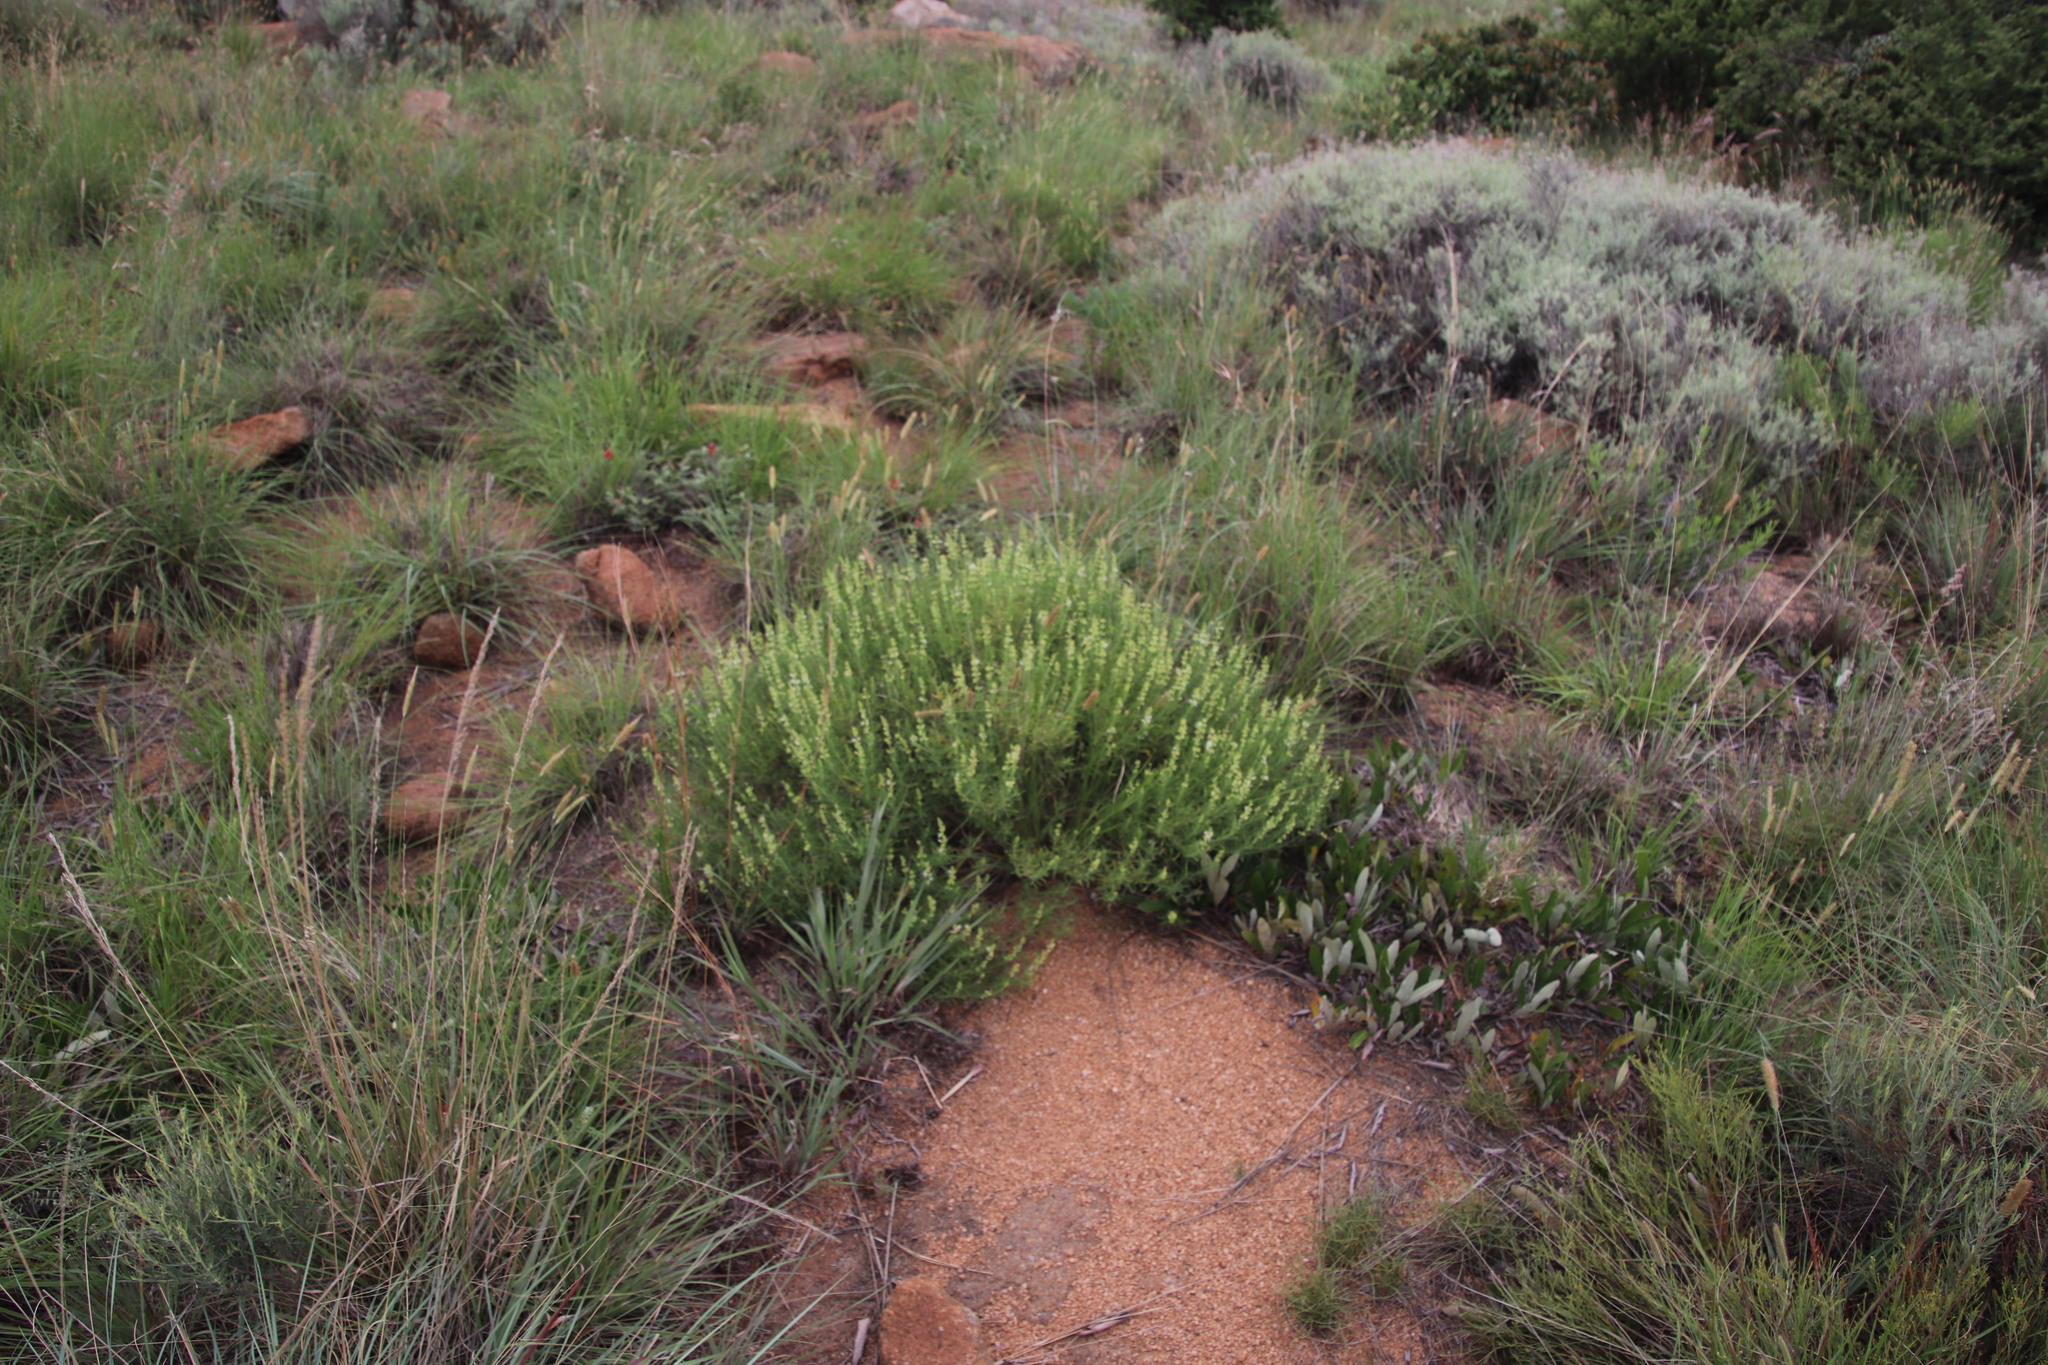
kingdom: Plantae
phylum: Tracheophyta
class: Magnoliopsida
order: Lamiales
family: Lamiaceae
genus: Ocimum
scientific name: Ocimum angustifolium
